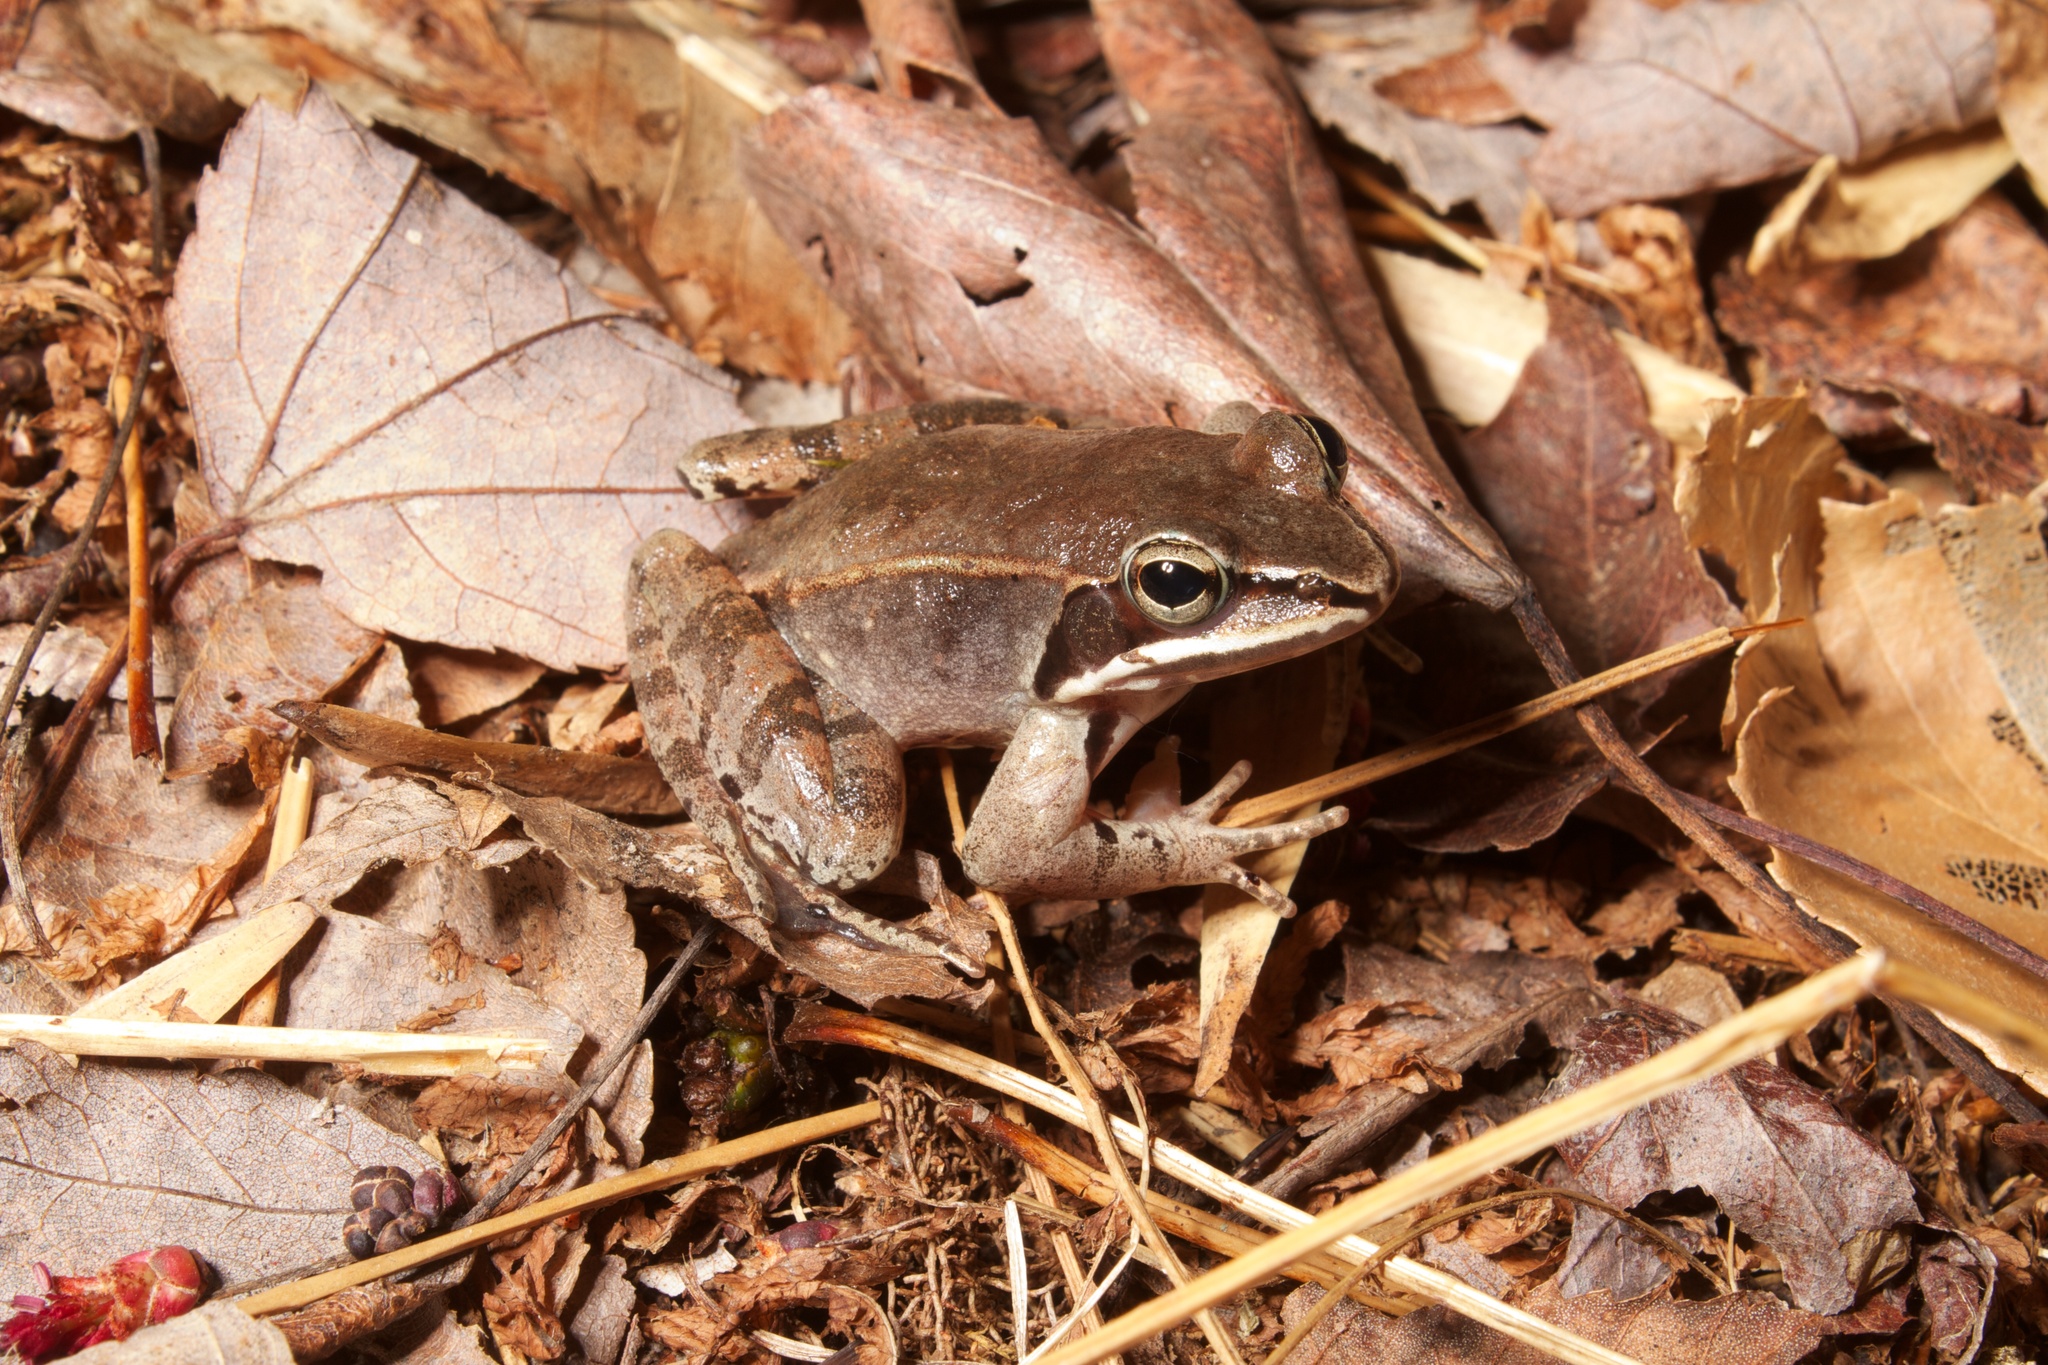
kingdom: Animalia
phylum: Chordata
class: Amphibia
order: Anura
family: Ranidae
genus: Lithobates
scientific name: Lithobates sylvaticus
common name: Wood frog
